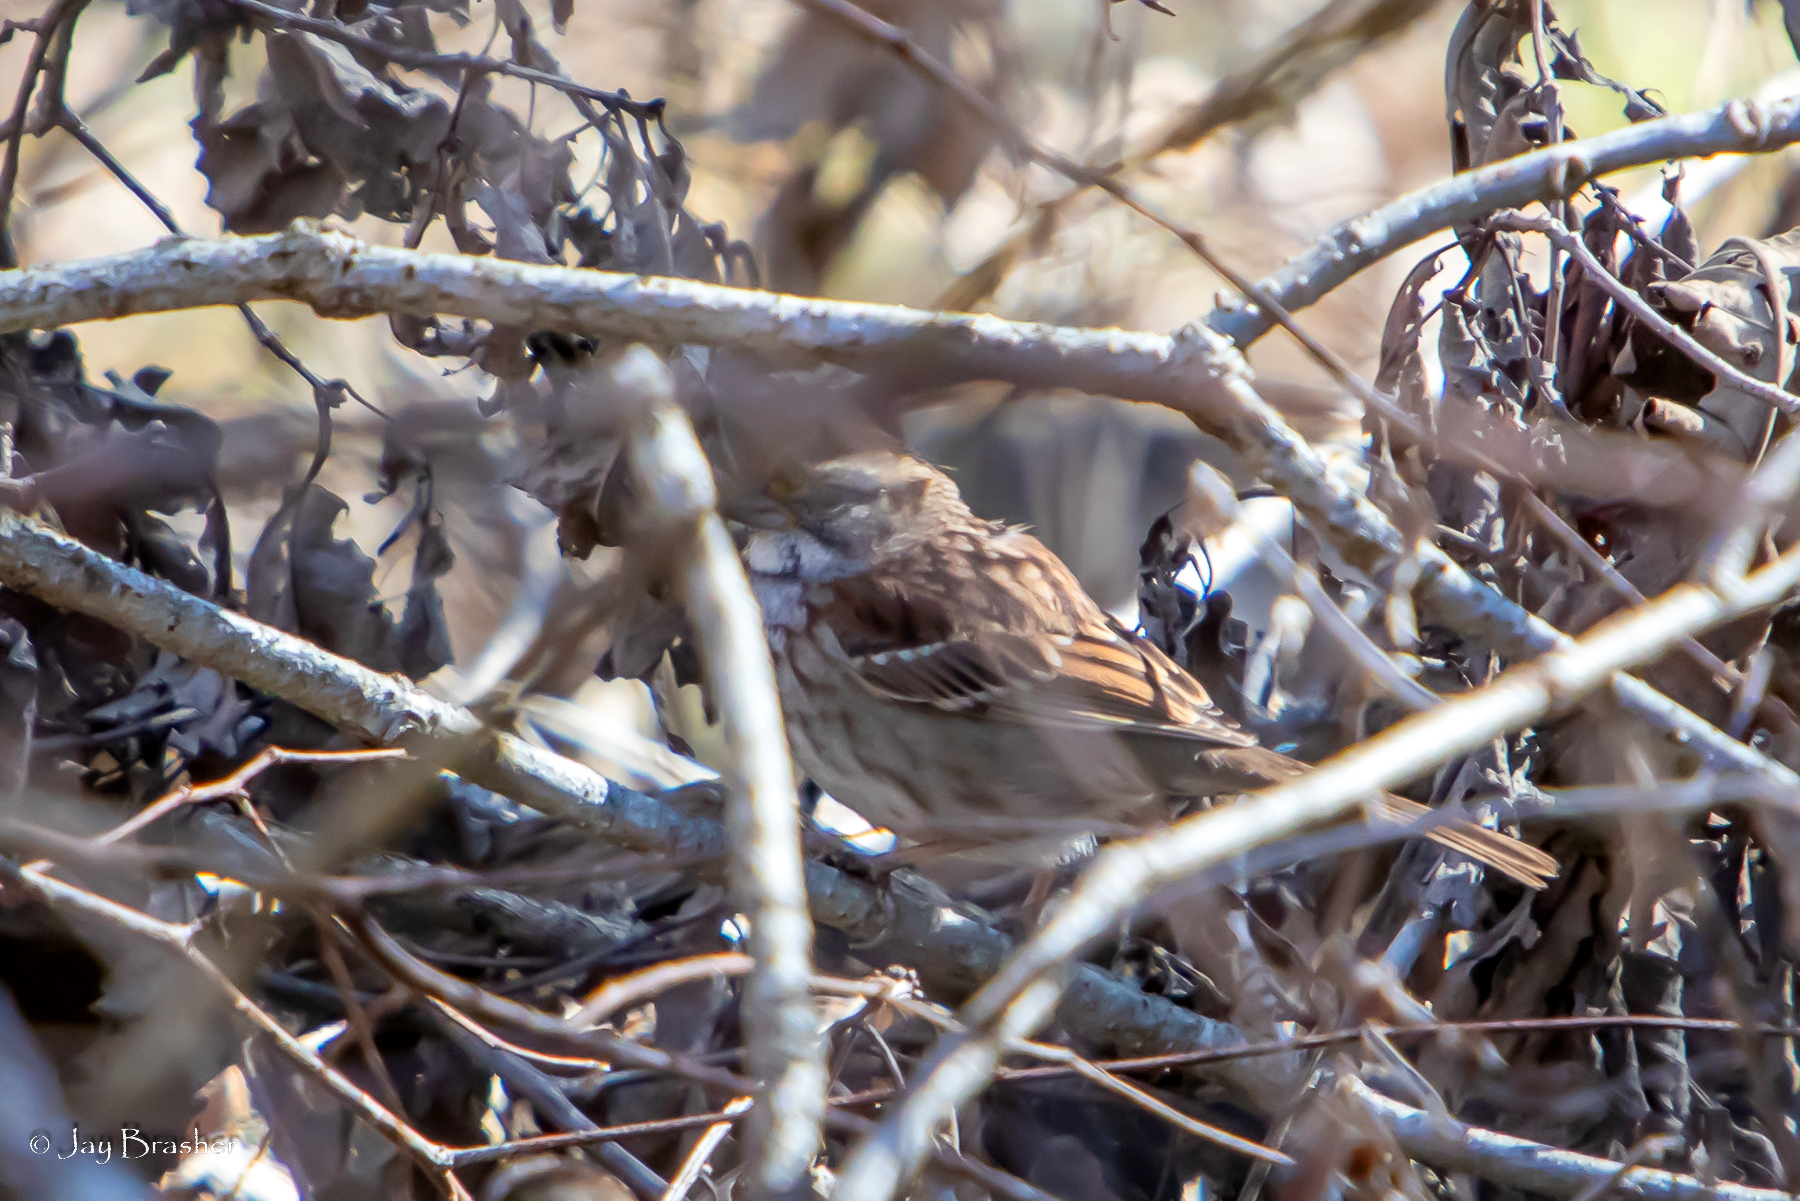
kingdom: Animalia
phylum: Chordata
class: Aves
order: Passeriformes
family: Passerellidae
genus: Zonotrichia
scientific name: Zonotrichia albicollis
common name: White-throated sparrow
